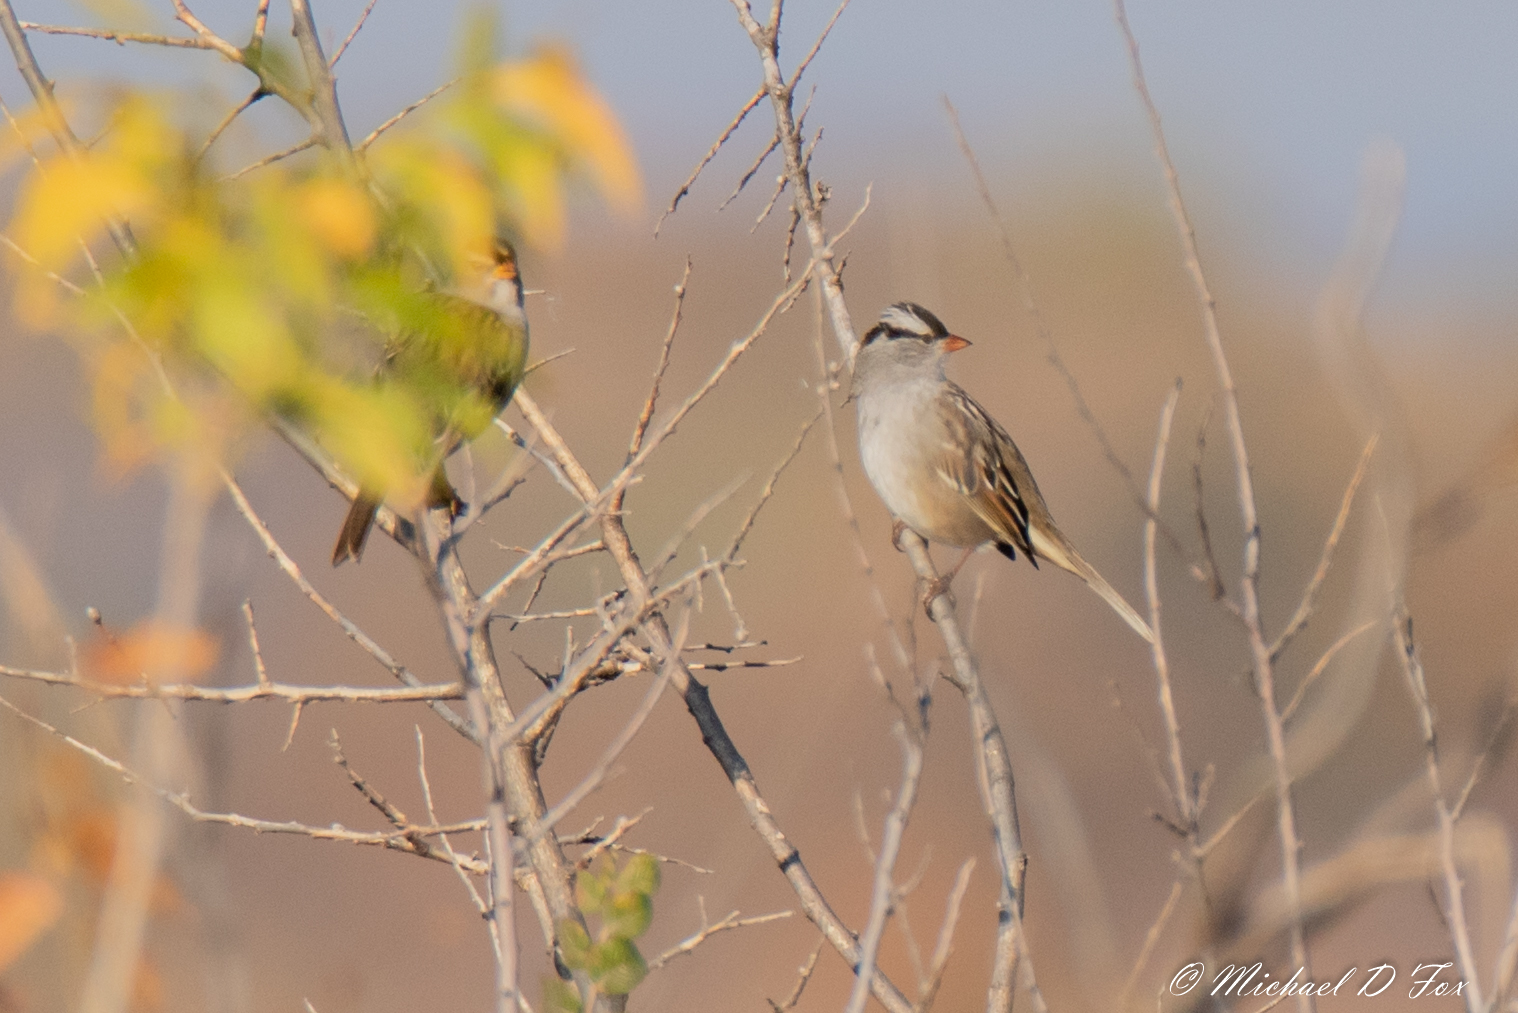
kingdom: Animalia
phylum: Chordata
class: Aves
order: Passeriformes
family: Passerellidae
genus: Zonotrichia
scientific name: Zonotrichia leucophrys
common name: White-crowned sparrow
